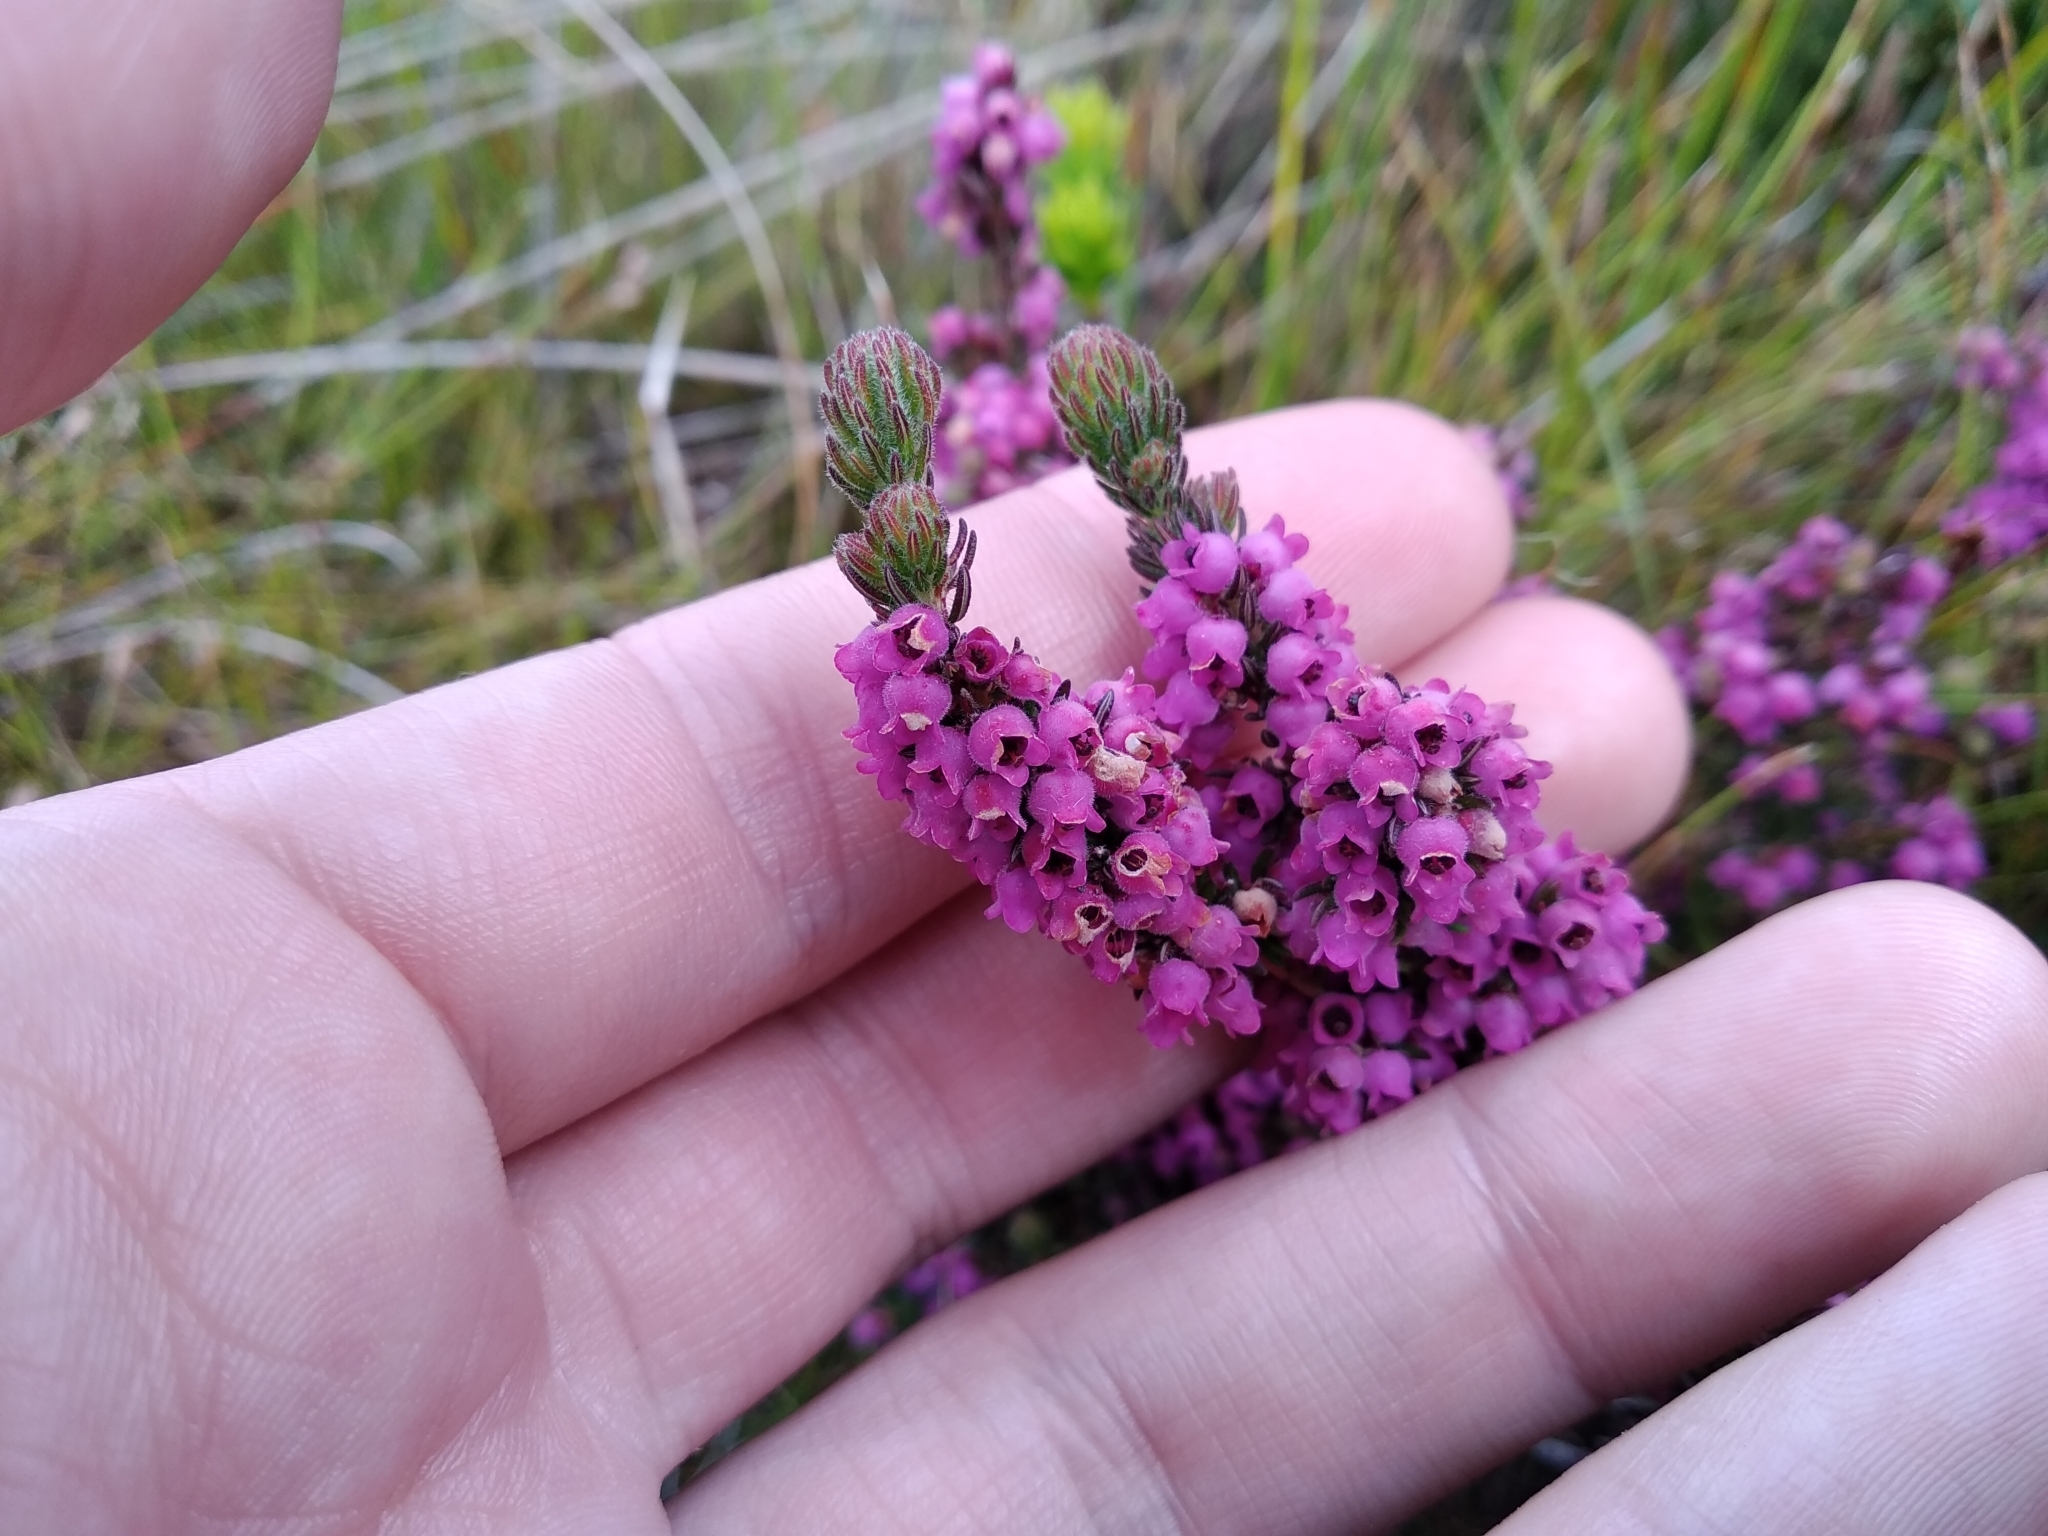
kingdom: Plantae
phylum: Tracheophyta
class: Magnoliopsida
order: Ericales
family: Ericaceae
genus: Erica
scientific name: Erica mollis
